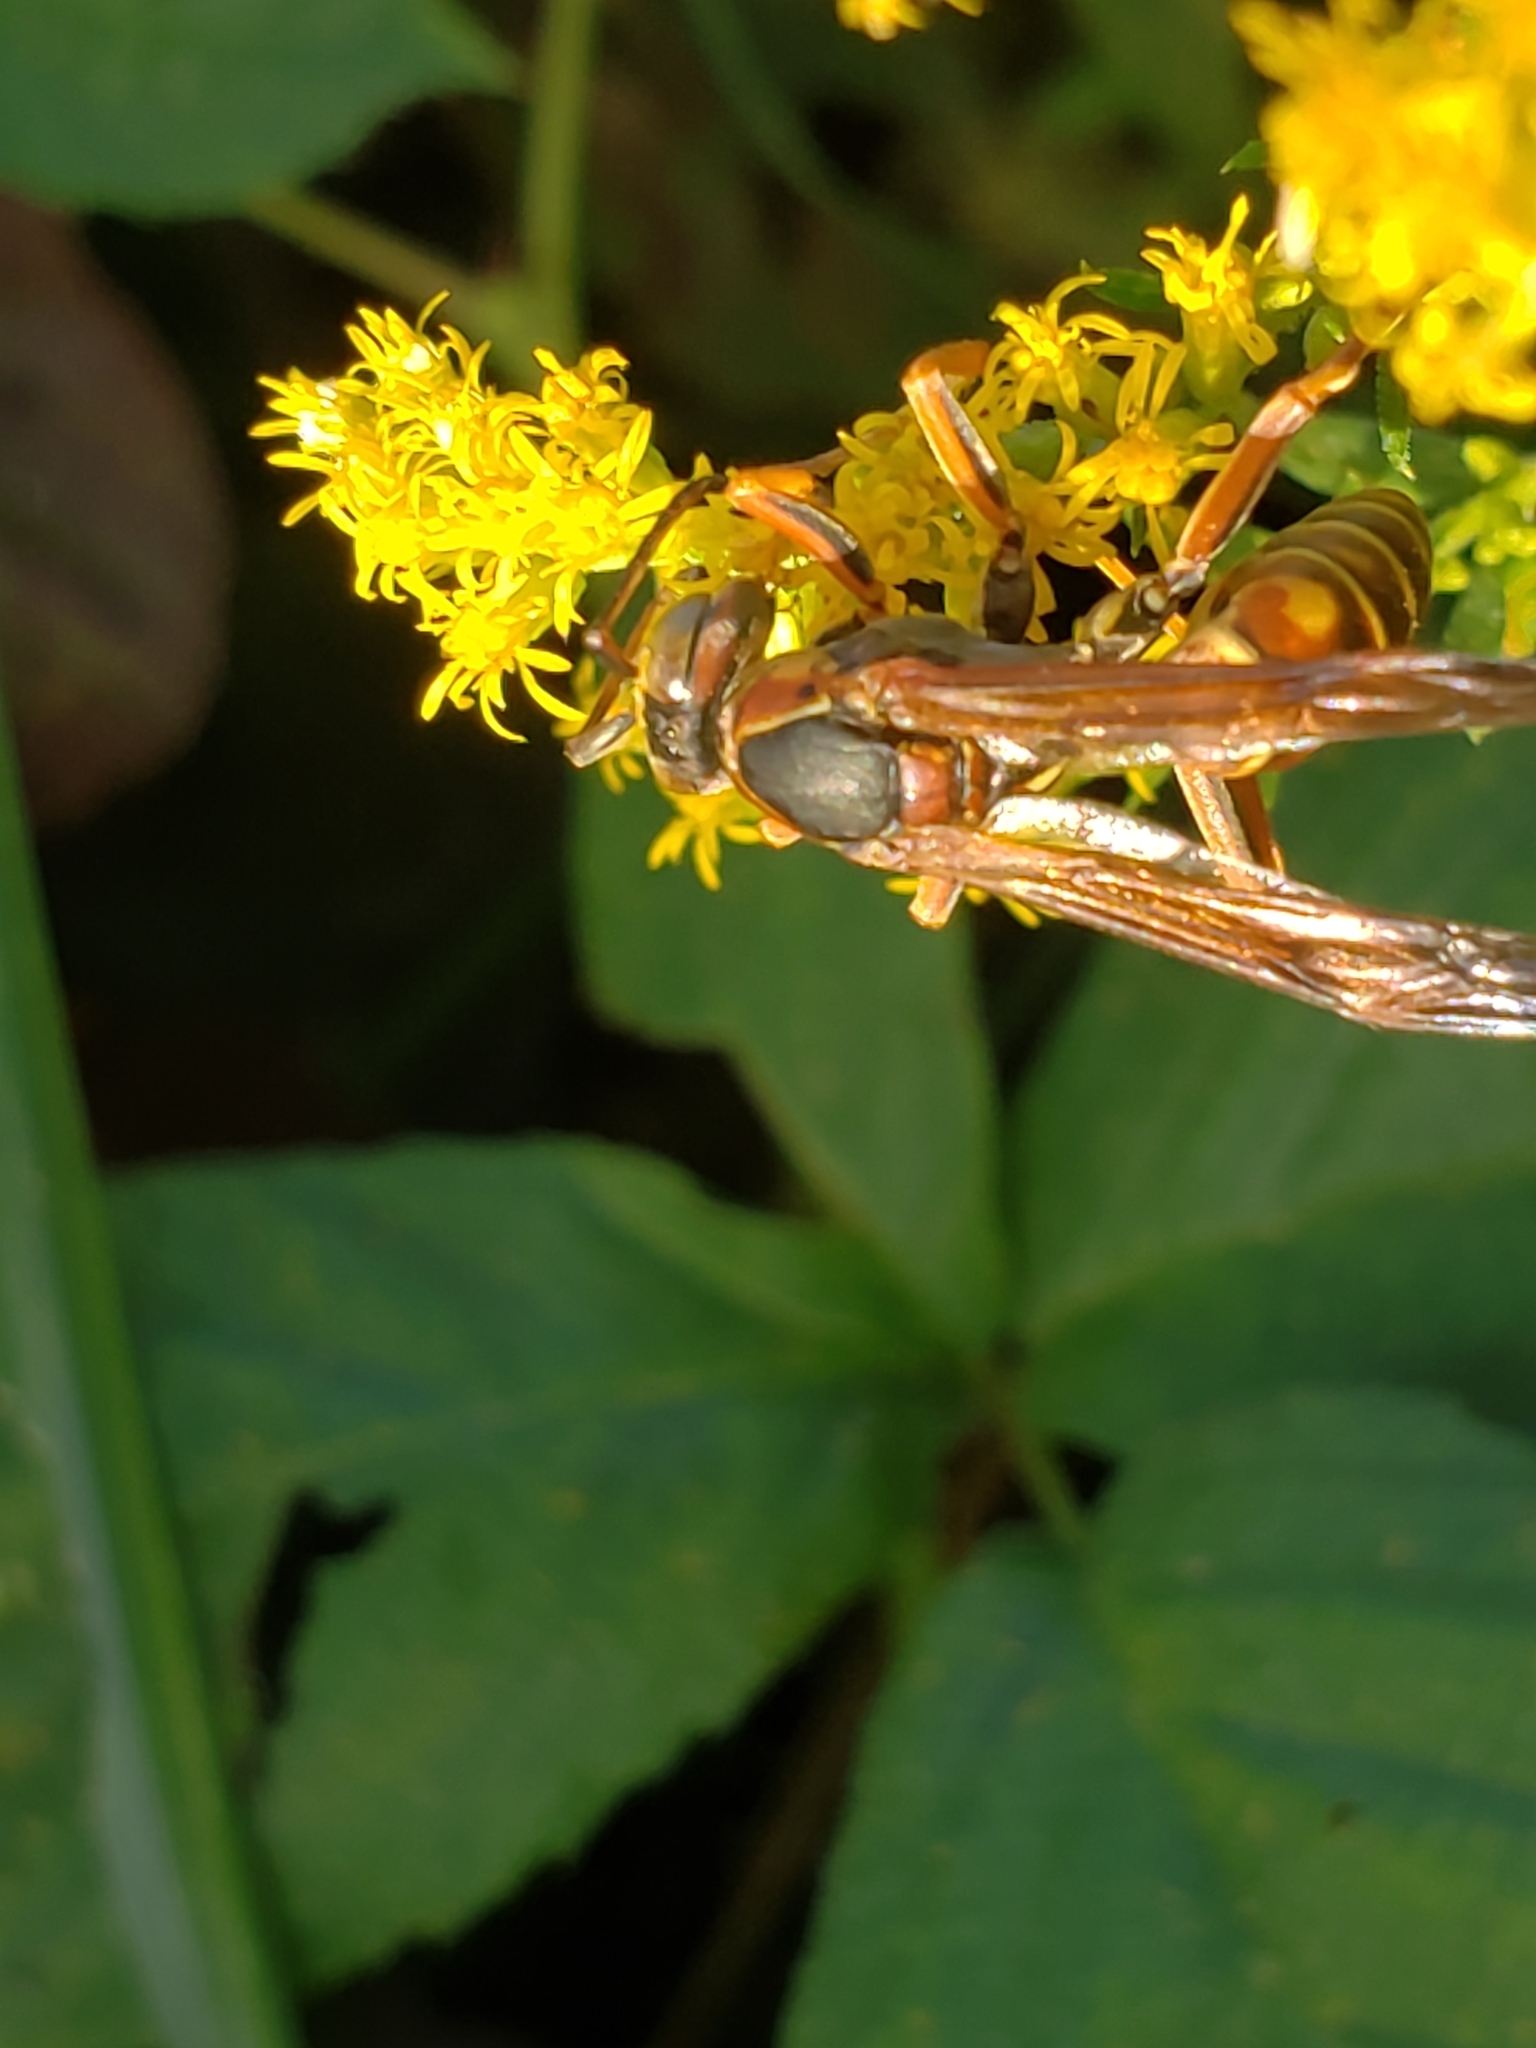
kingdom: Animalia
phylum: Arthropoda
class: Insecta
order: Hymenoptera
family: Eumenidae
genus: Polistes
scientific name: Polistes fuscatus
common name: Dark paper wasp
